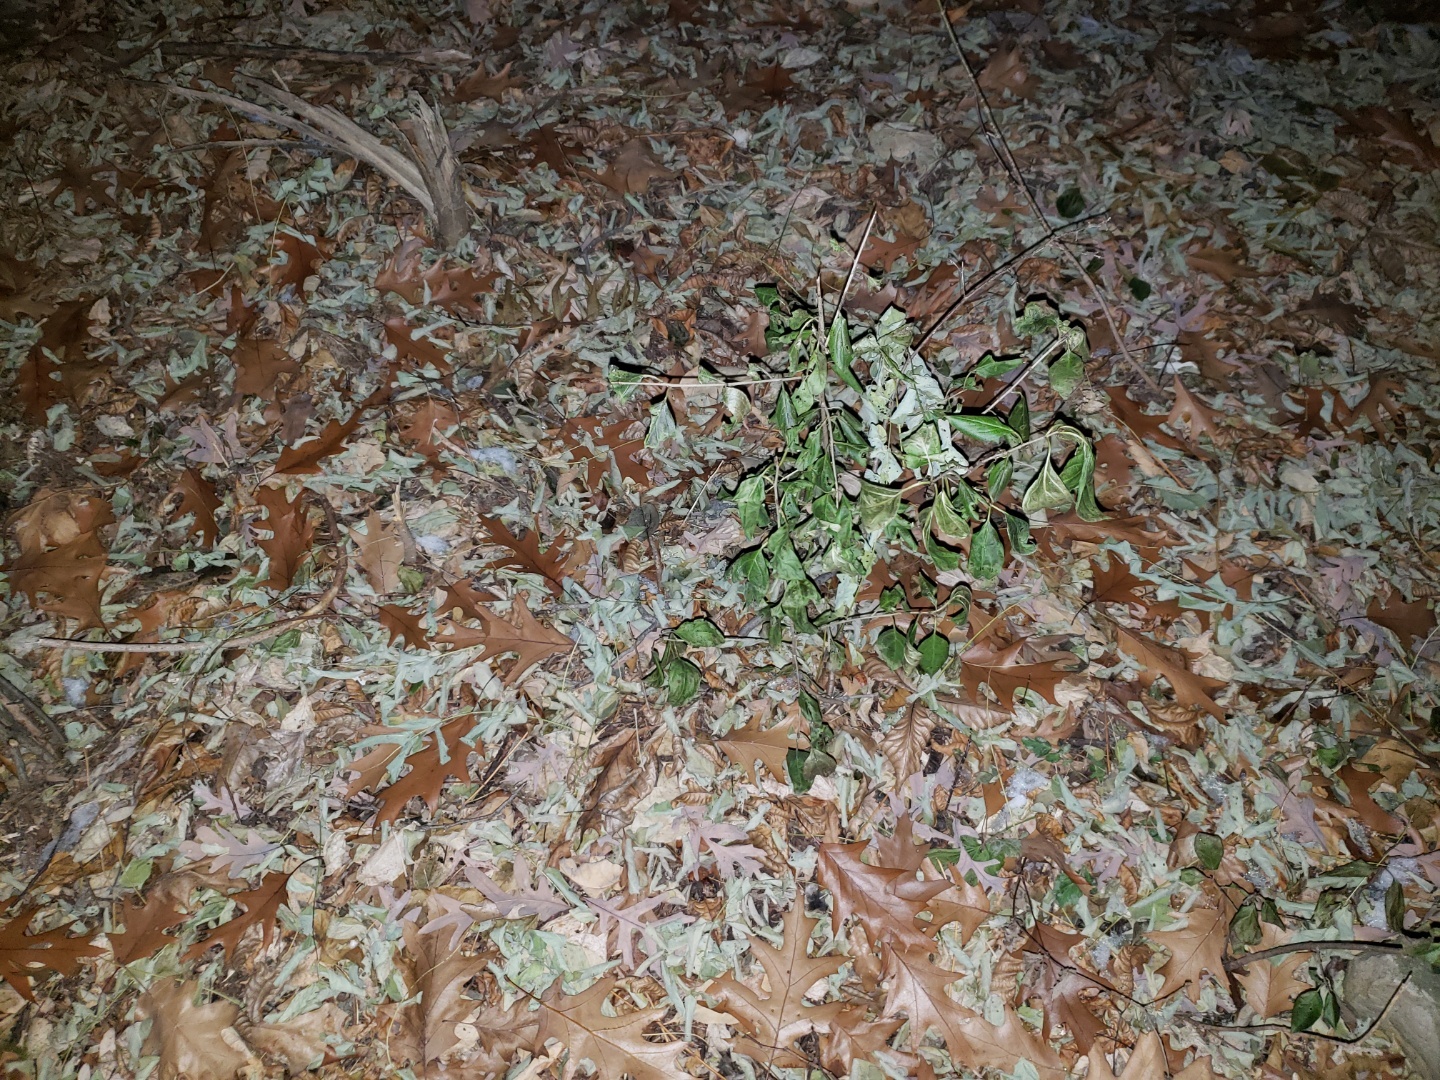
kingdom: Plantae
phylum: Tracheophyta
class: Magnoliopsida
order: Rosales
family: Rhamnaceae
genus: Rhamnus
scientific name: Rhamnus cathartica
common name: Common buckthorn
